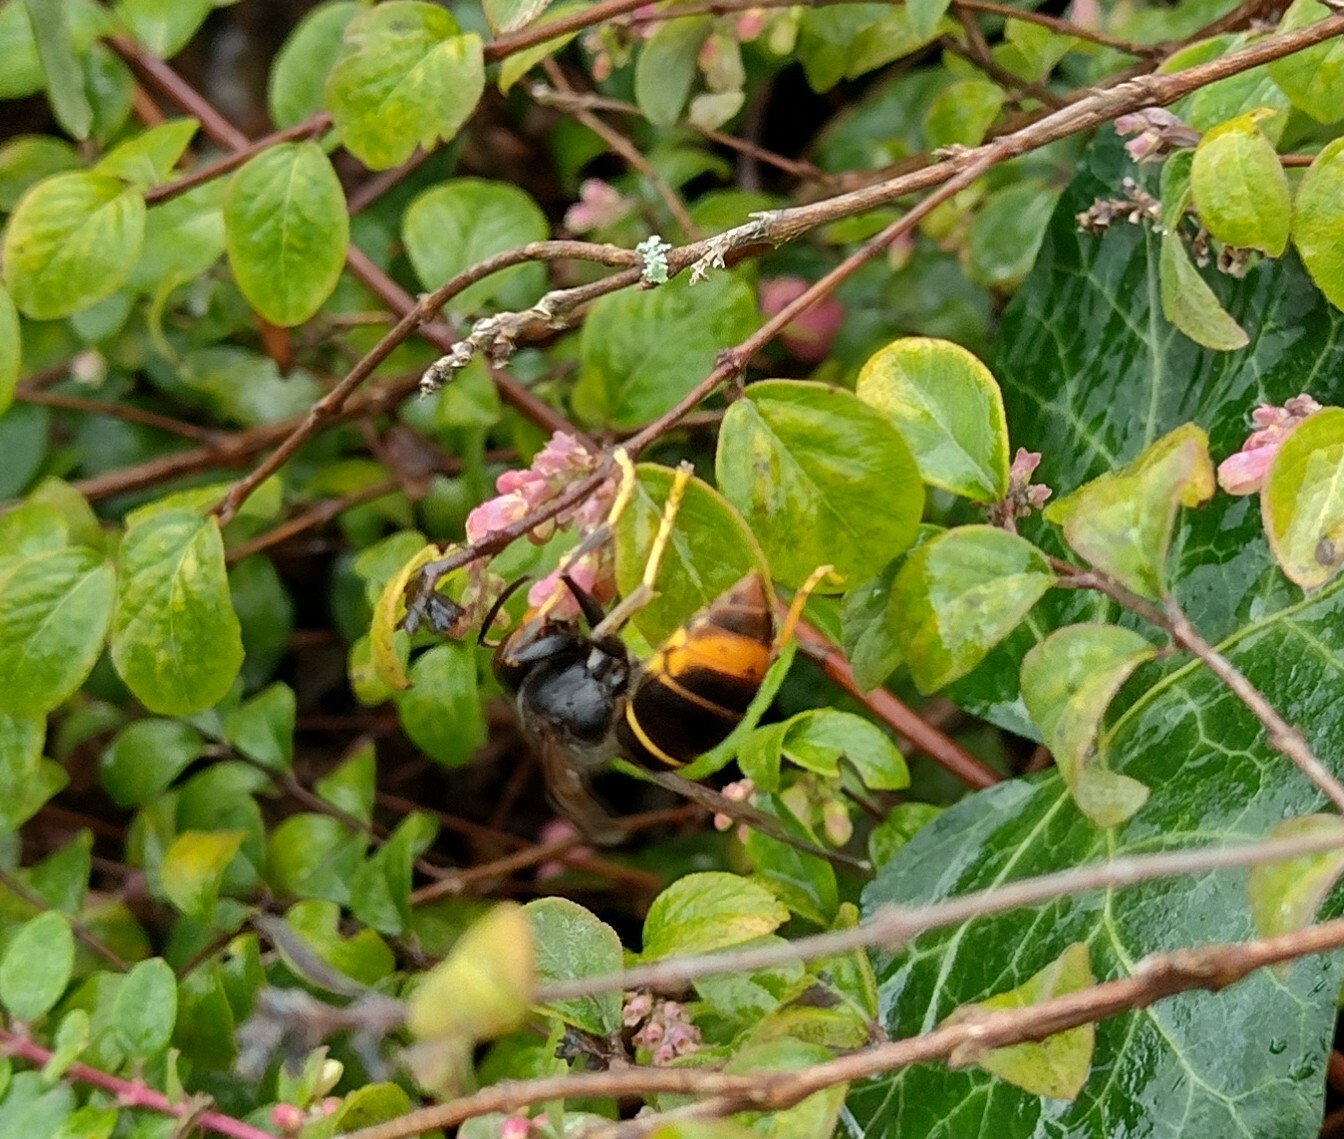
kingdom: Animalia
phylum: Arthropoda
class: Insecta
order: Hymenoptera
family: Vespidae
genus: Vespa
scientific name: Vespa velutina
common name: Asian hornet
